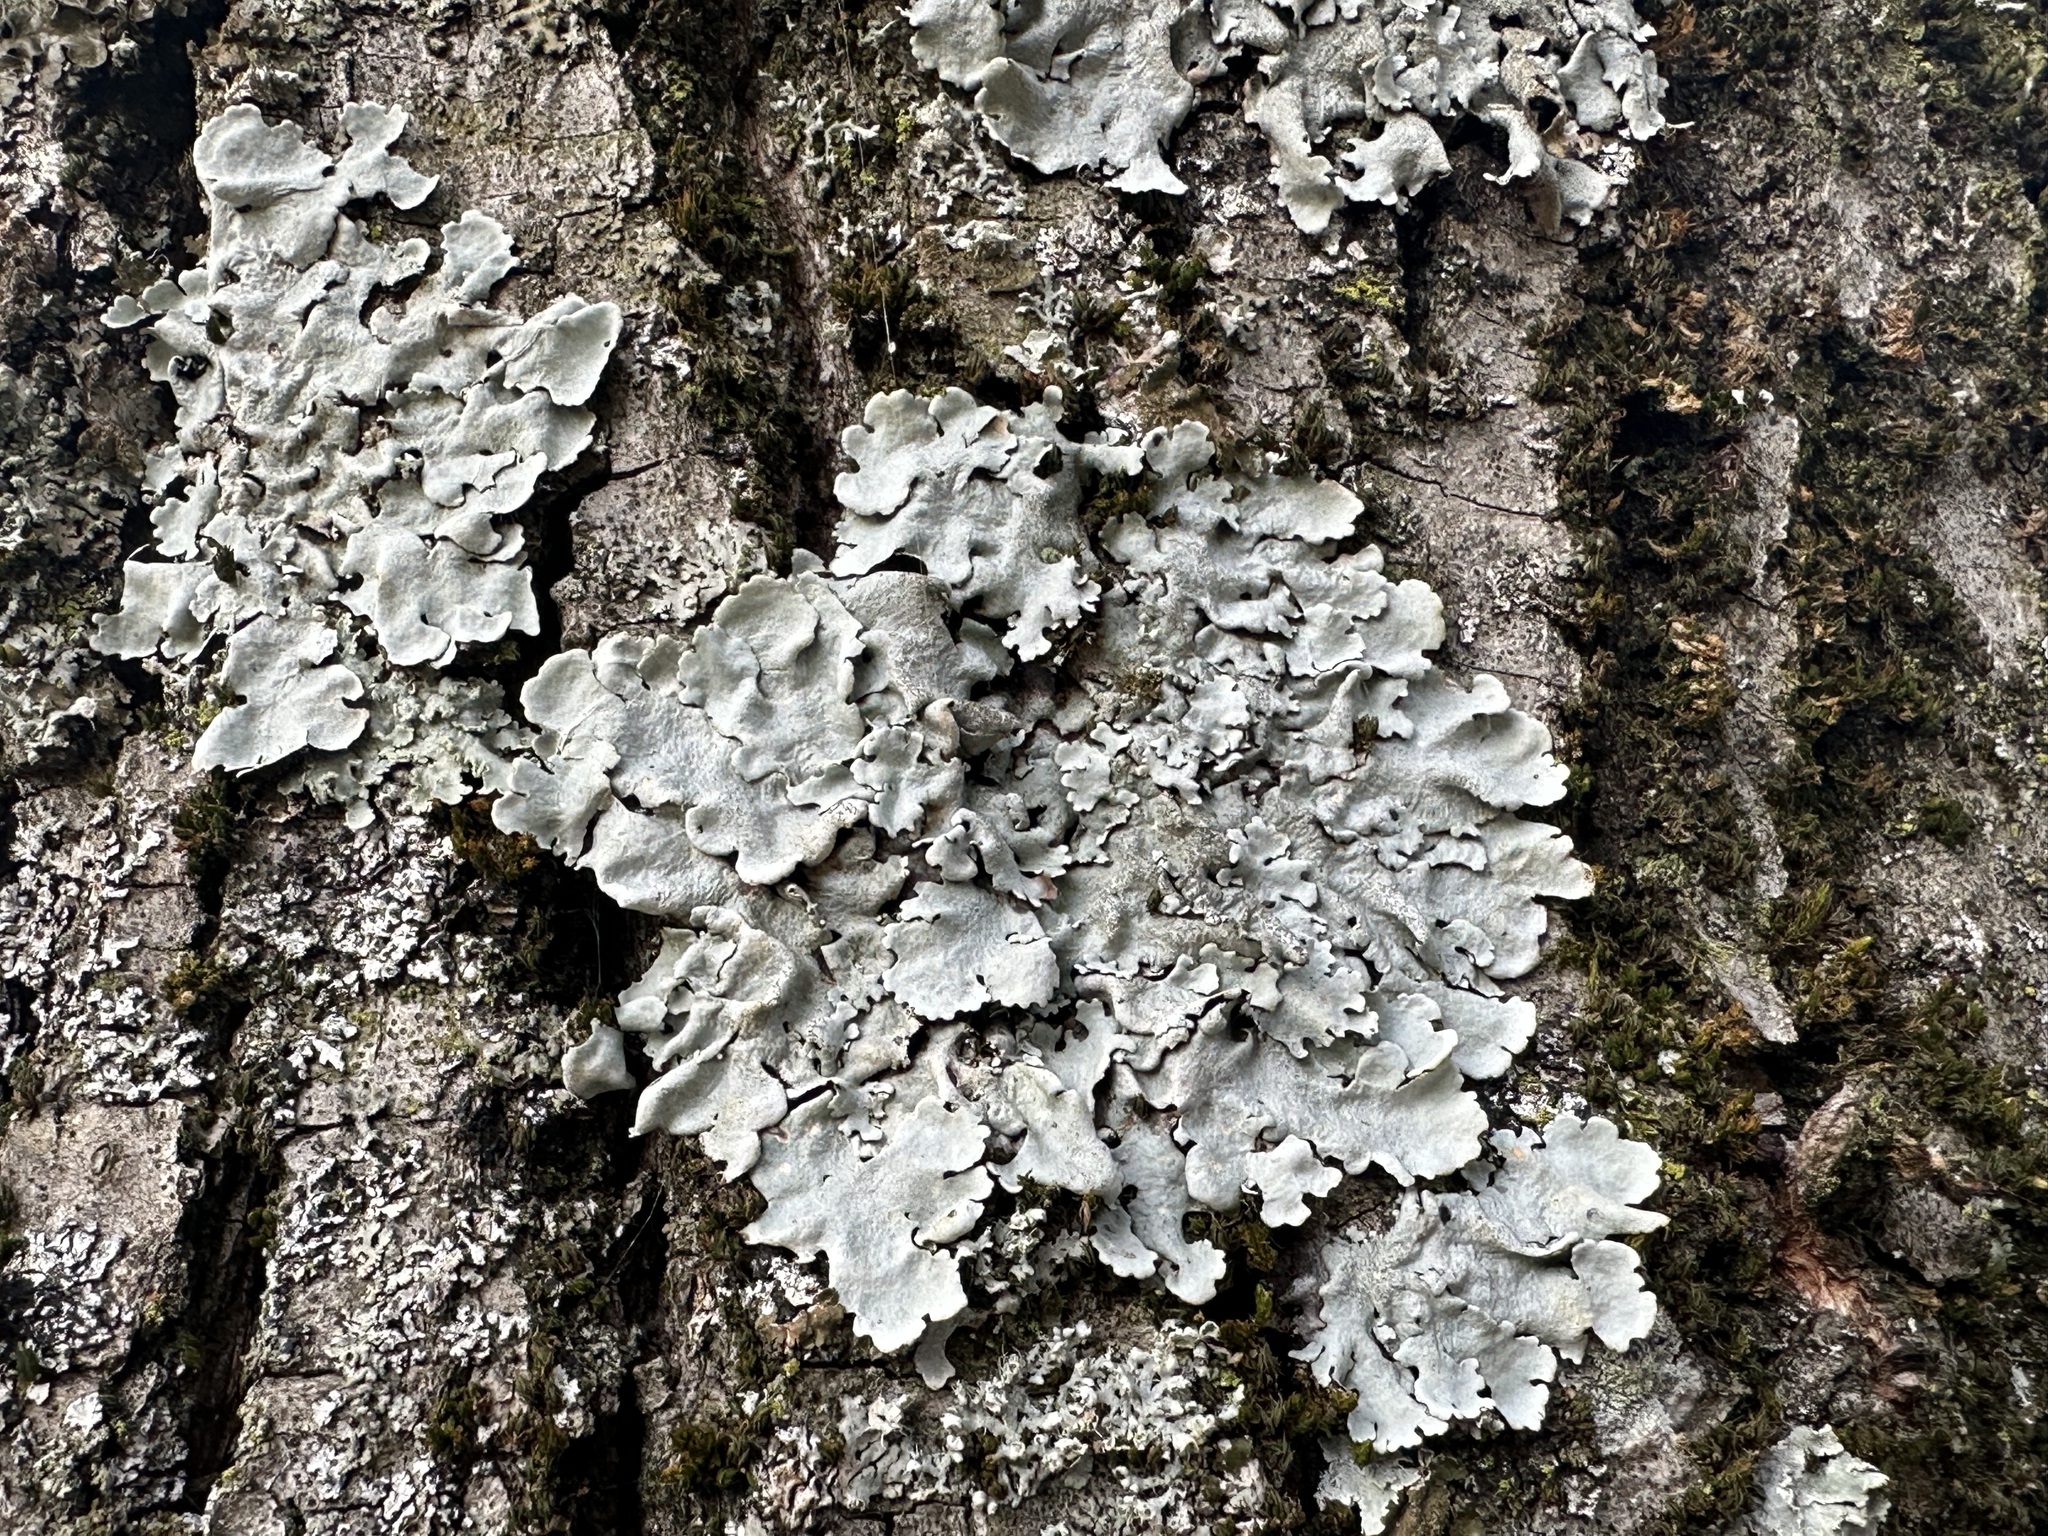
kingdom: Fungi
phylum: Ascomycota
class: Lecanoromycetes
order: Lecanorales
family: Parmeliaceae
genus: Parmelina
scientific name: Parmelina tiliacea
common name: Linden shield lichen
